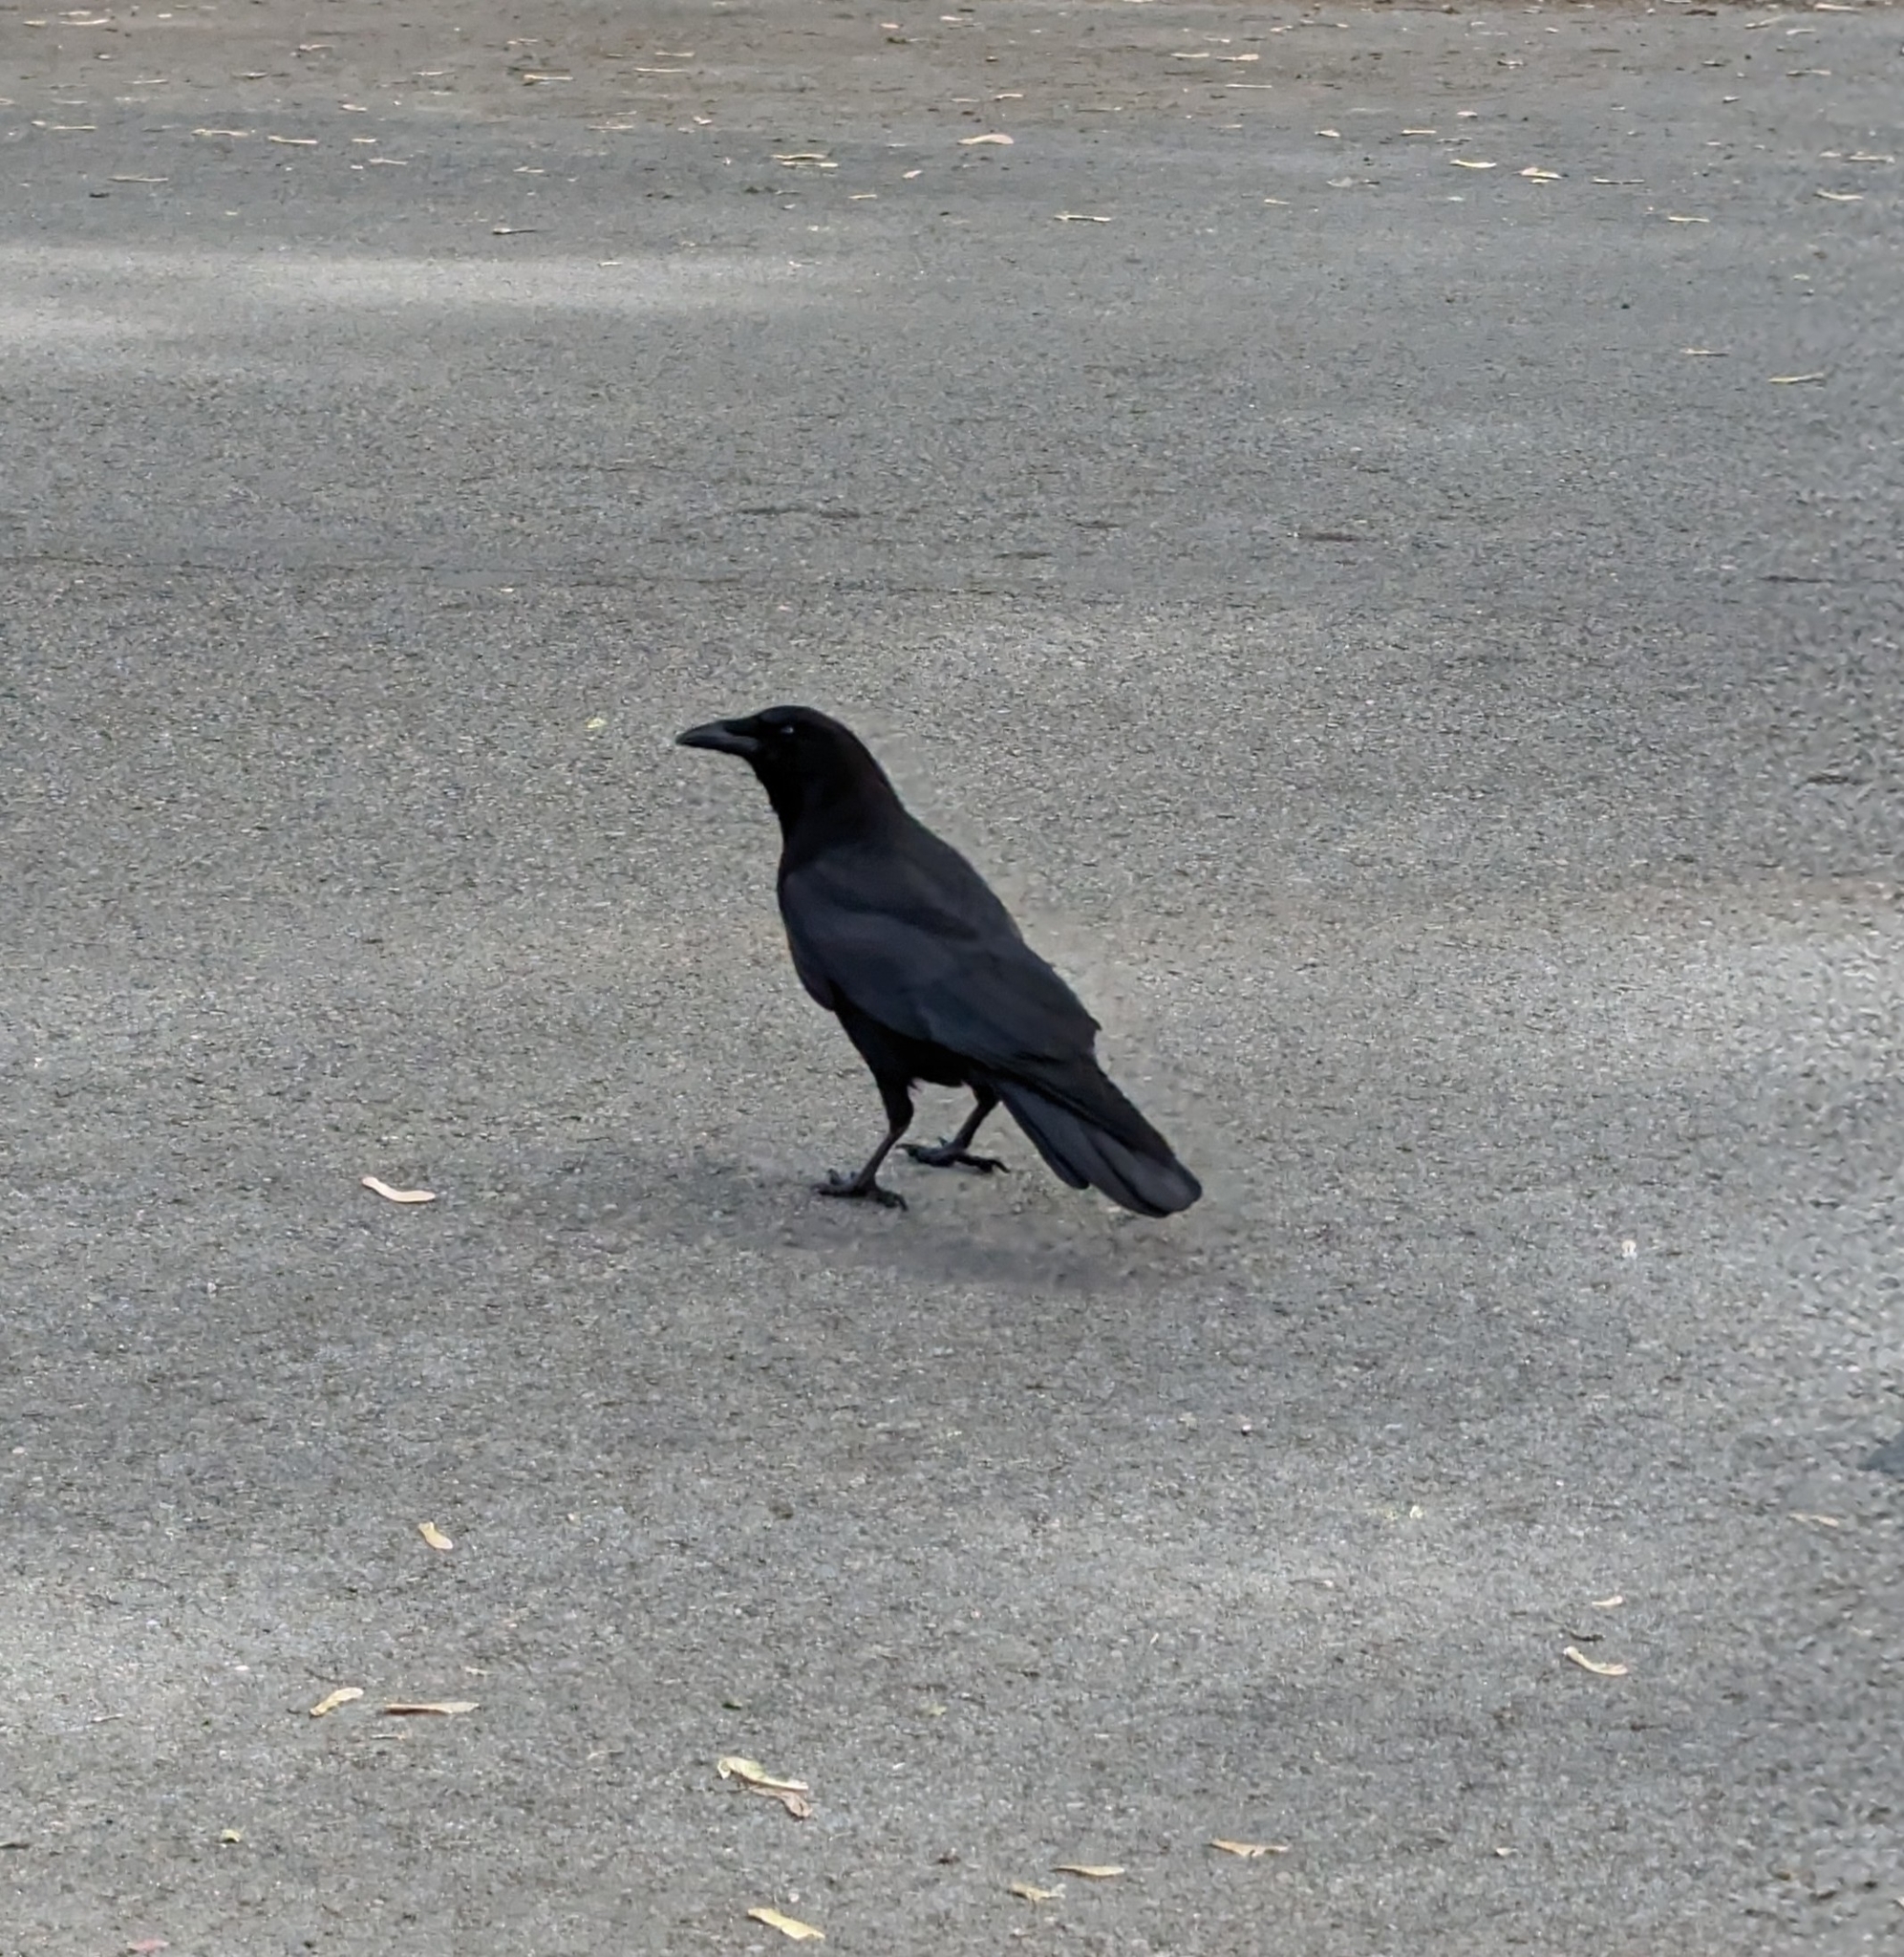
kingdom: Animalia
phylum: Chordata
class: Aves
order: Passeriformes
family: Corvidae
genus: Corvus
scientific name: Corvus brachyrhynchos
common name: American crow
